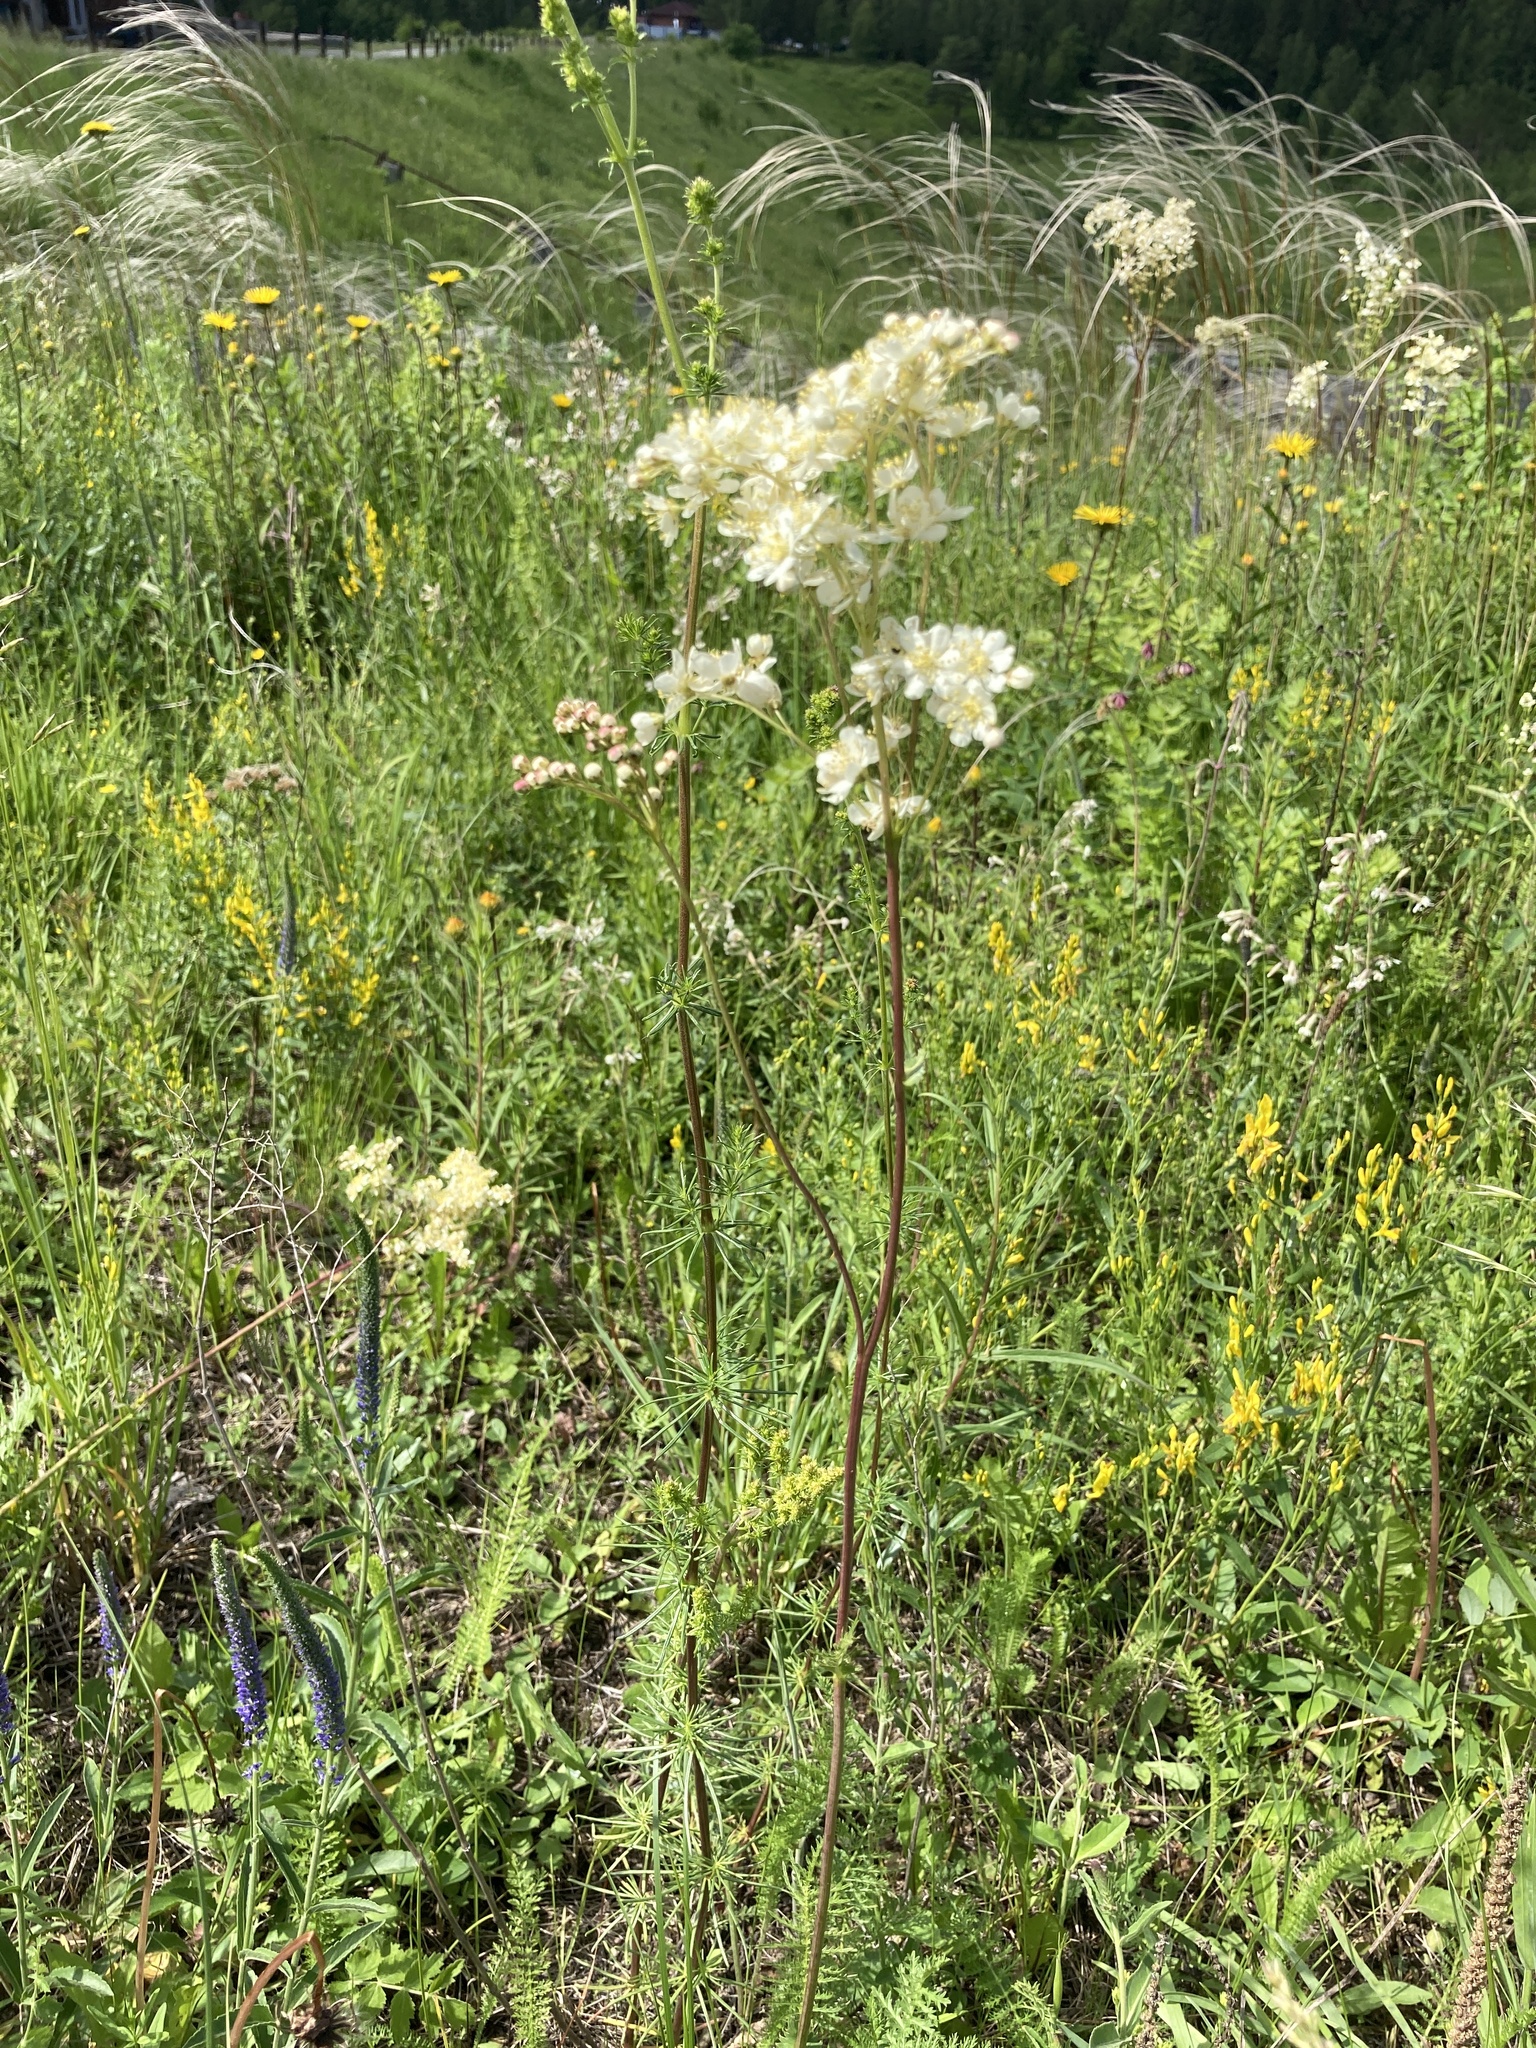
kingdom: Plantae
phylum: Tracheophyta
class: Magnoliopsida
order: Rosales
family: Rosaceae
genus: Filipendula
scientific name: Filipendula vulgaris
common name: Dropwort
